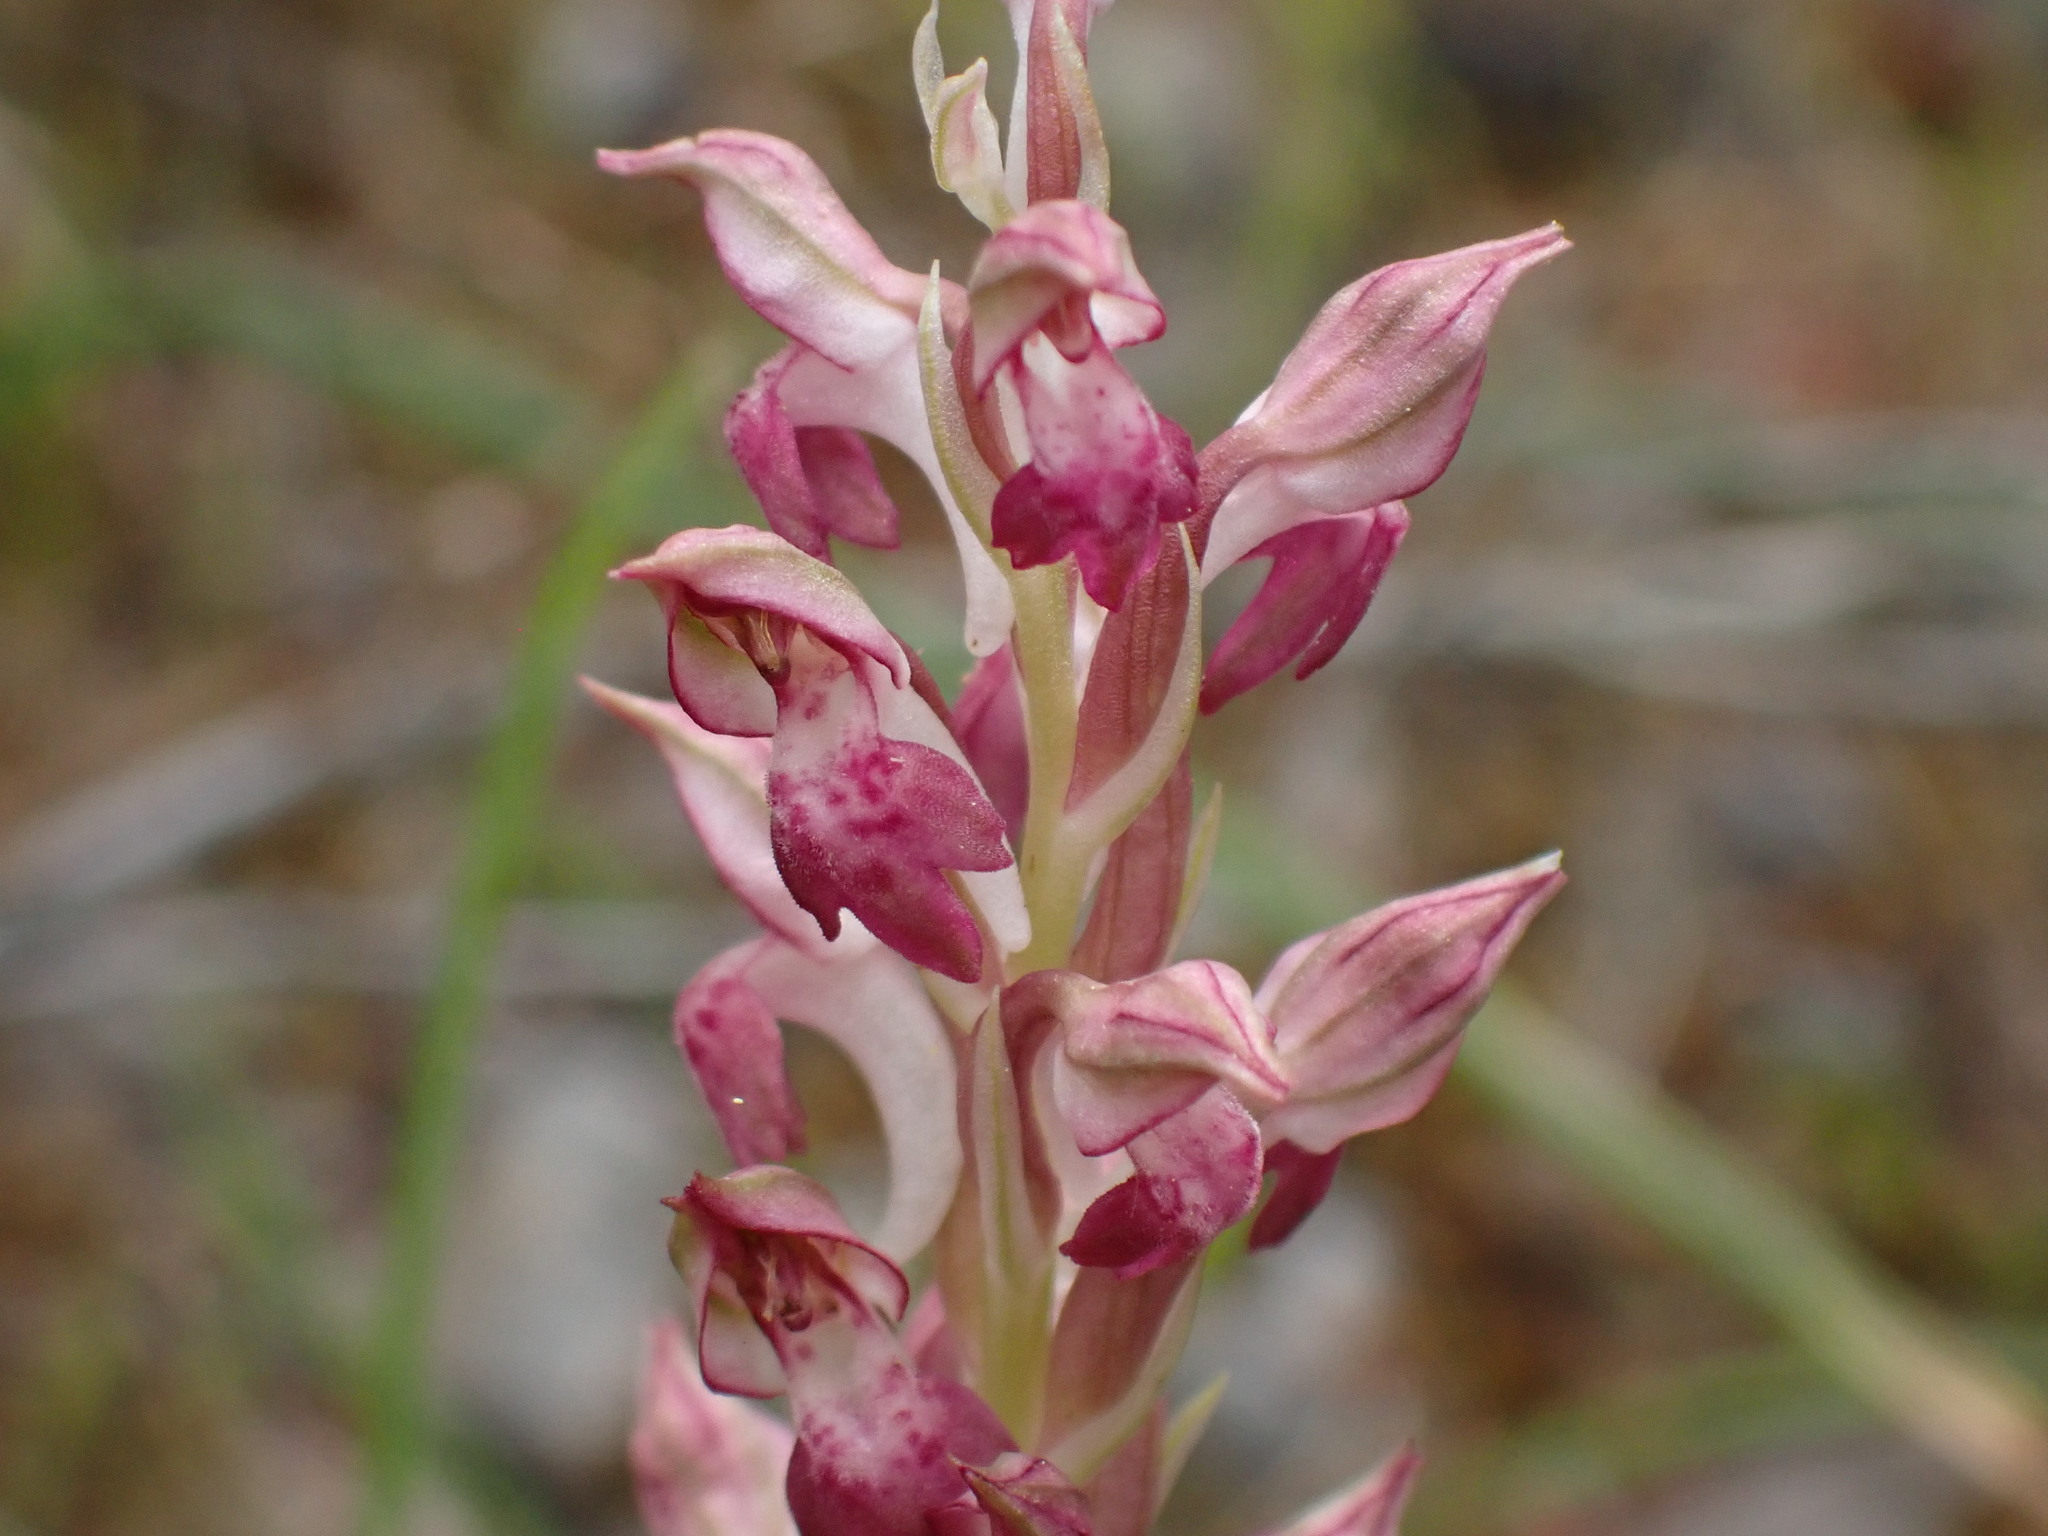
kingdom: Plantae
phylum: Tracheophyta
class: Liliopsida
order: Asparagales
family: Orchidaceae
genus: Anacamptis
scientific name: Anacamptis coriophora
